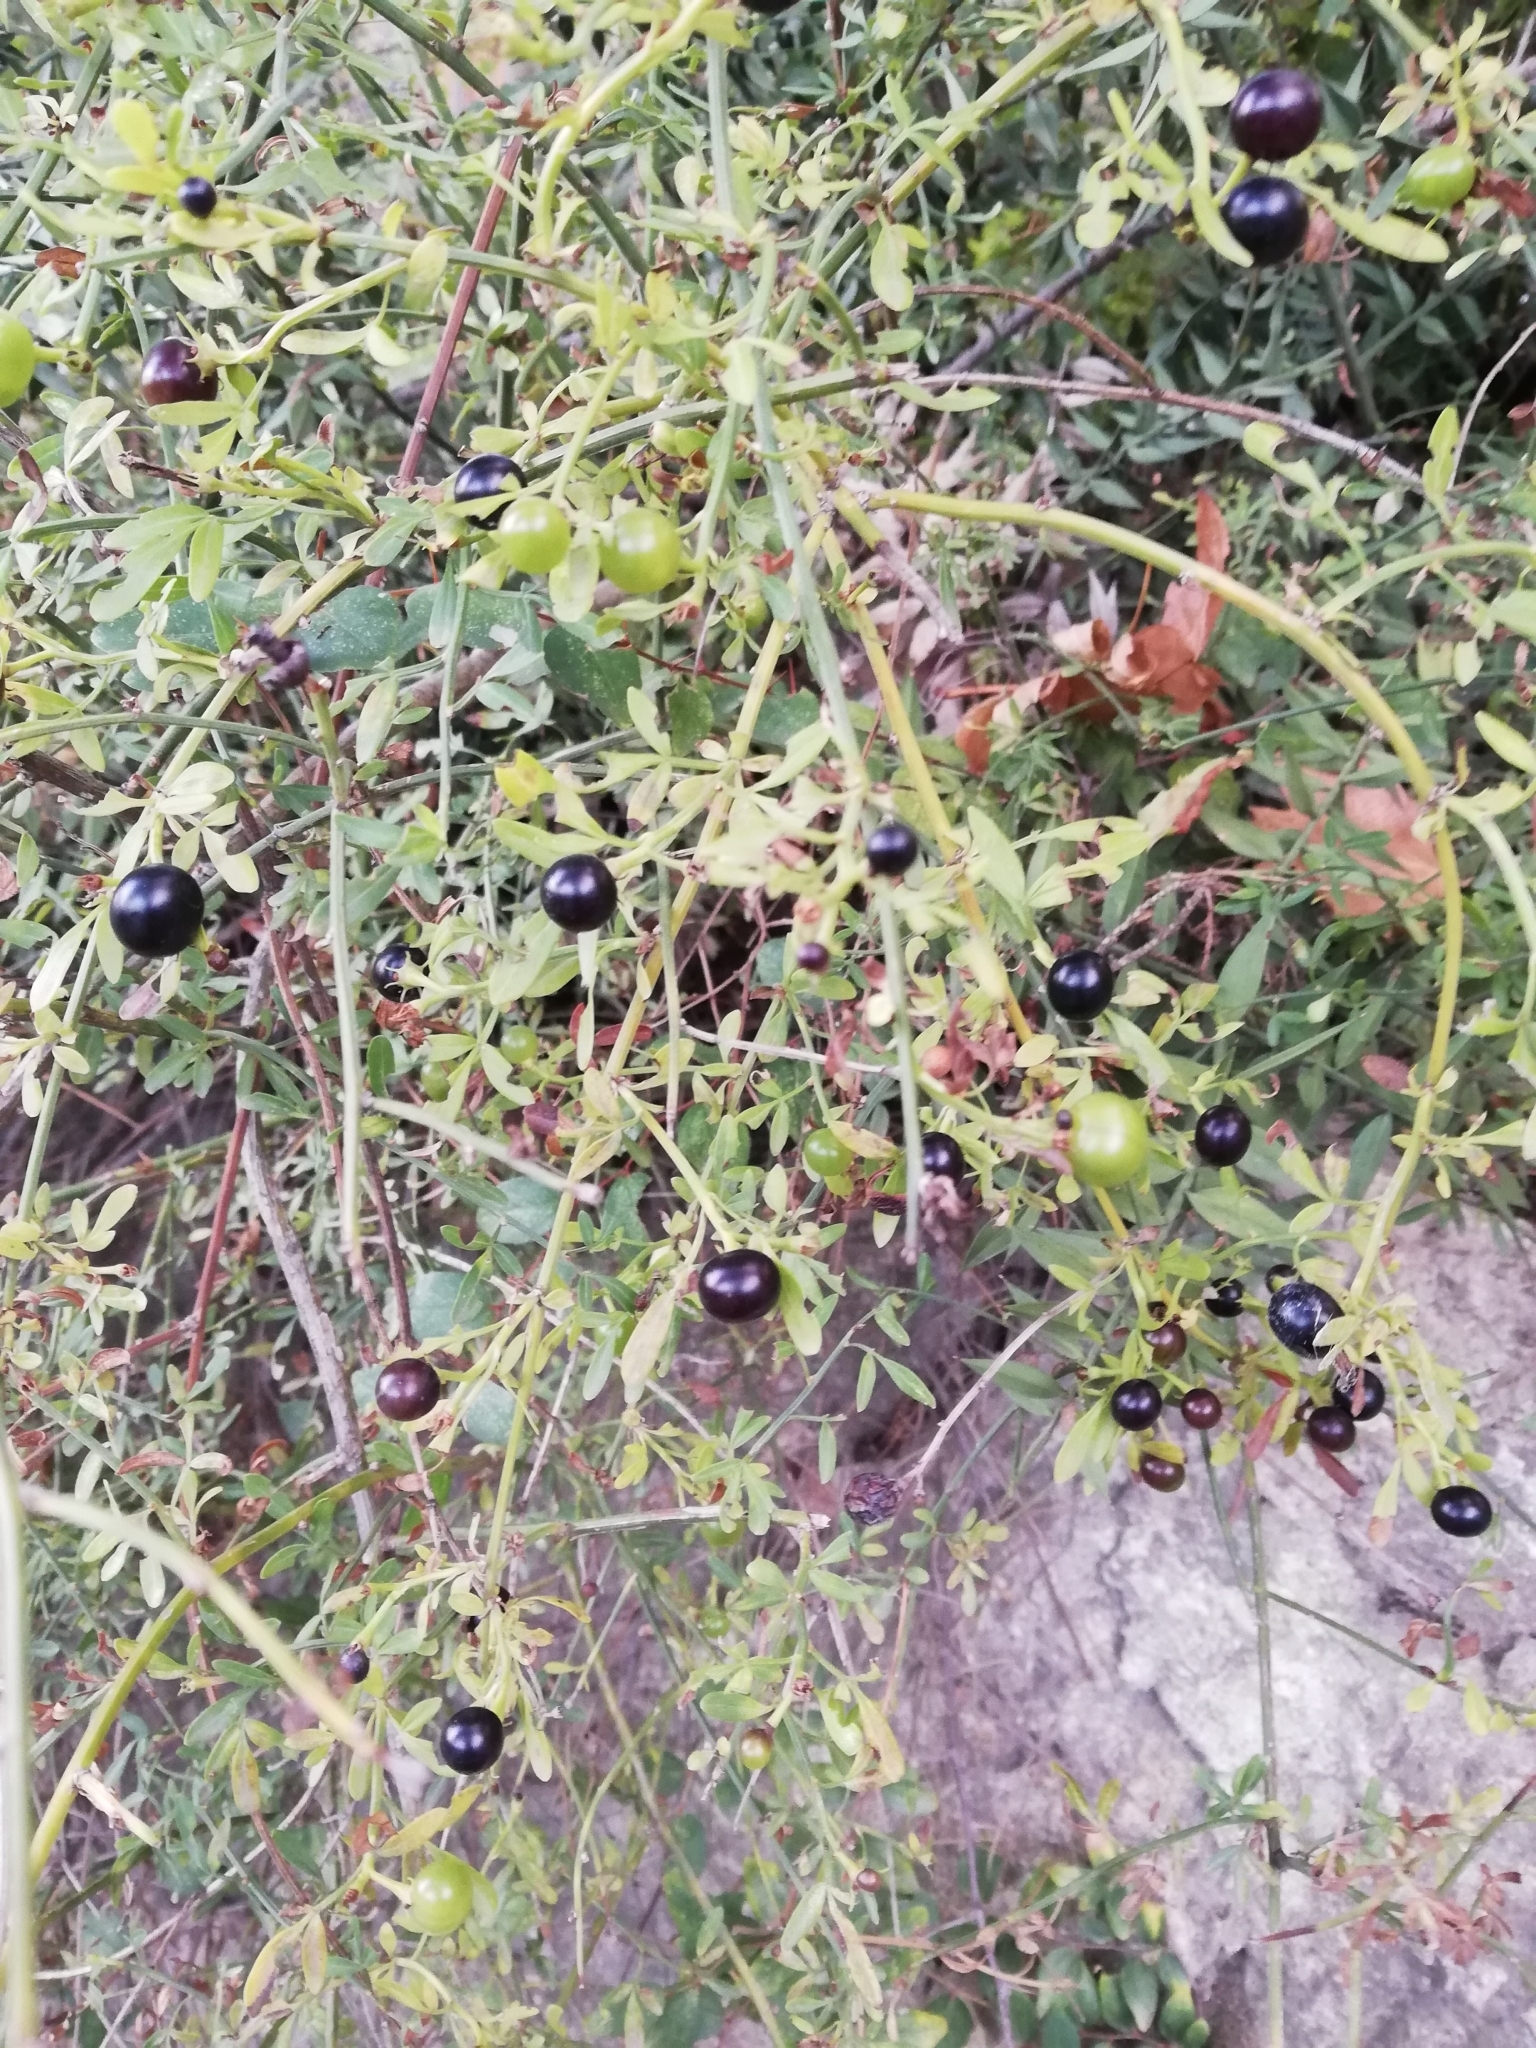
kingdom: Plantae
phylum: Tracheophyta
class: Magnoliopsida
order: Lamiales
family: Oleaceae
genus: Chrysojasminum
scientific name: Chrysojasminum fruticans
